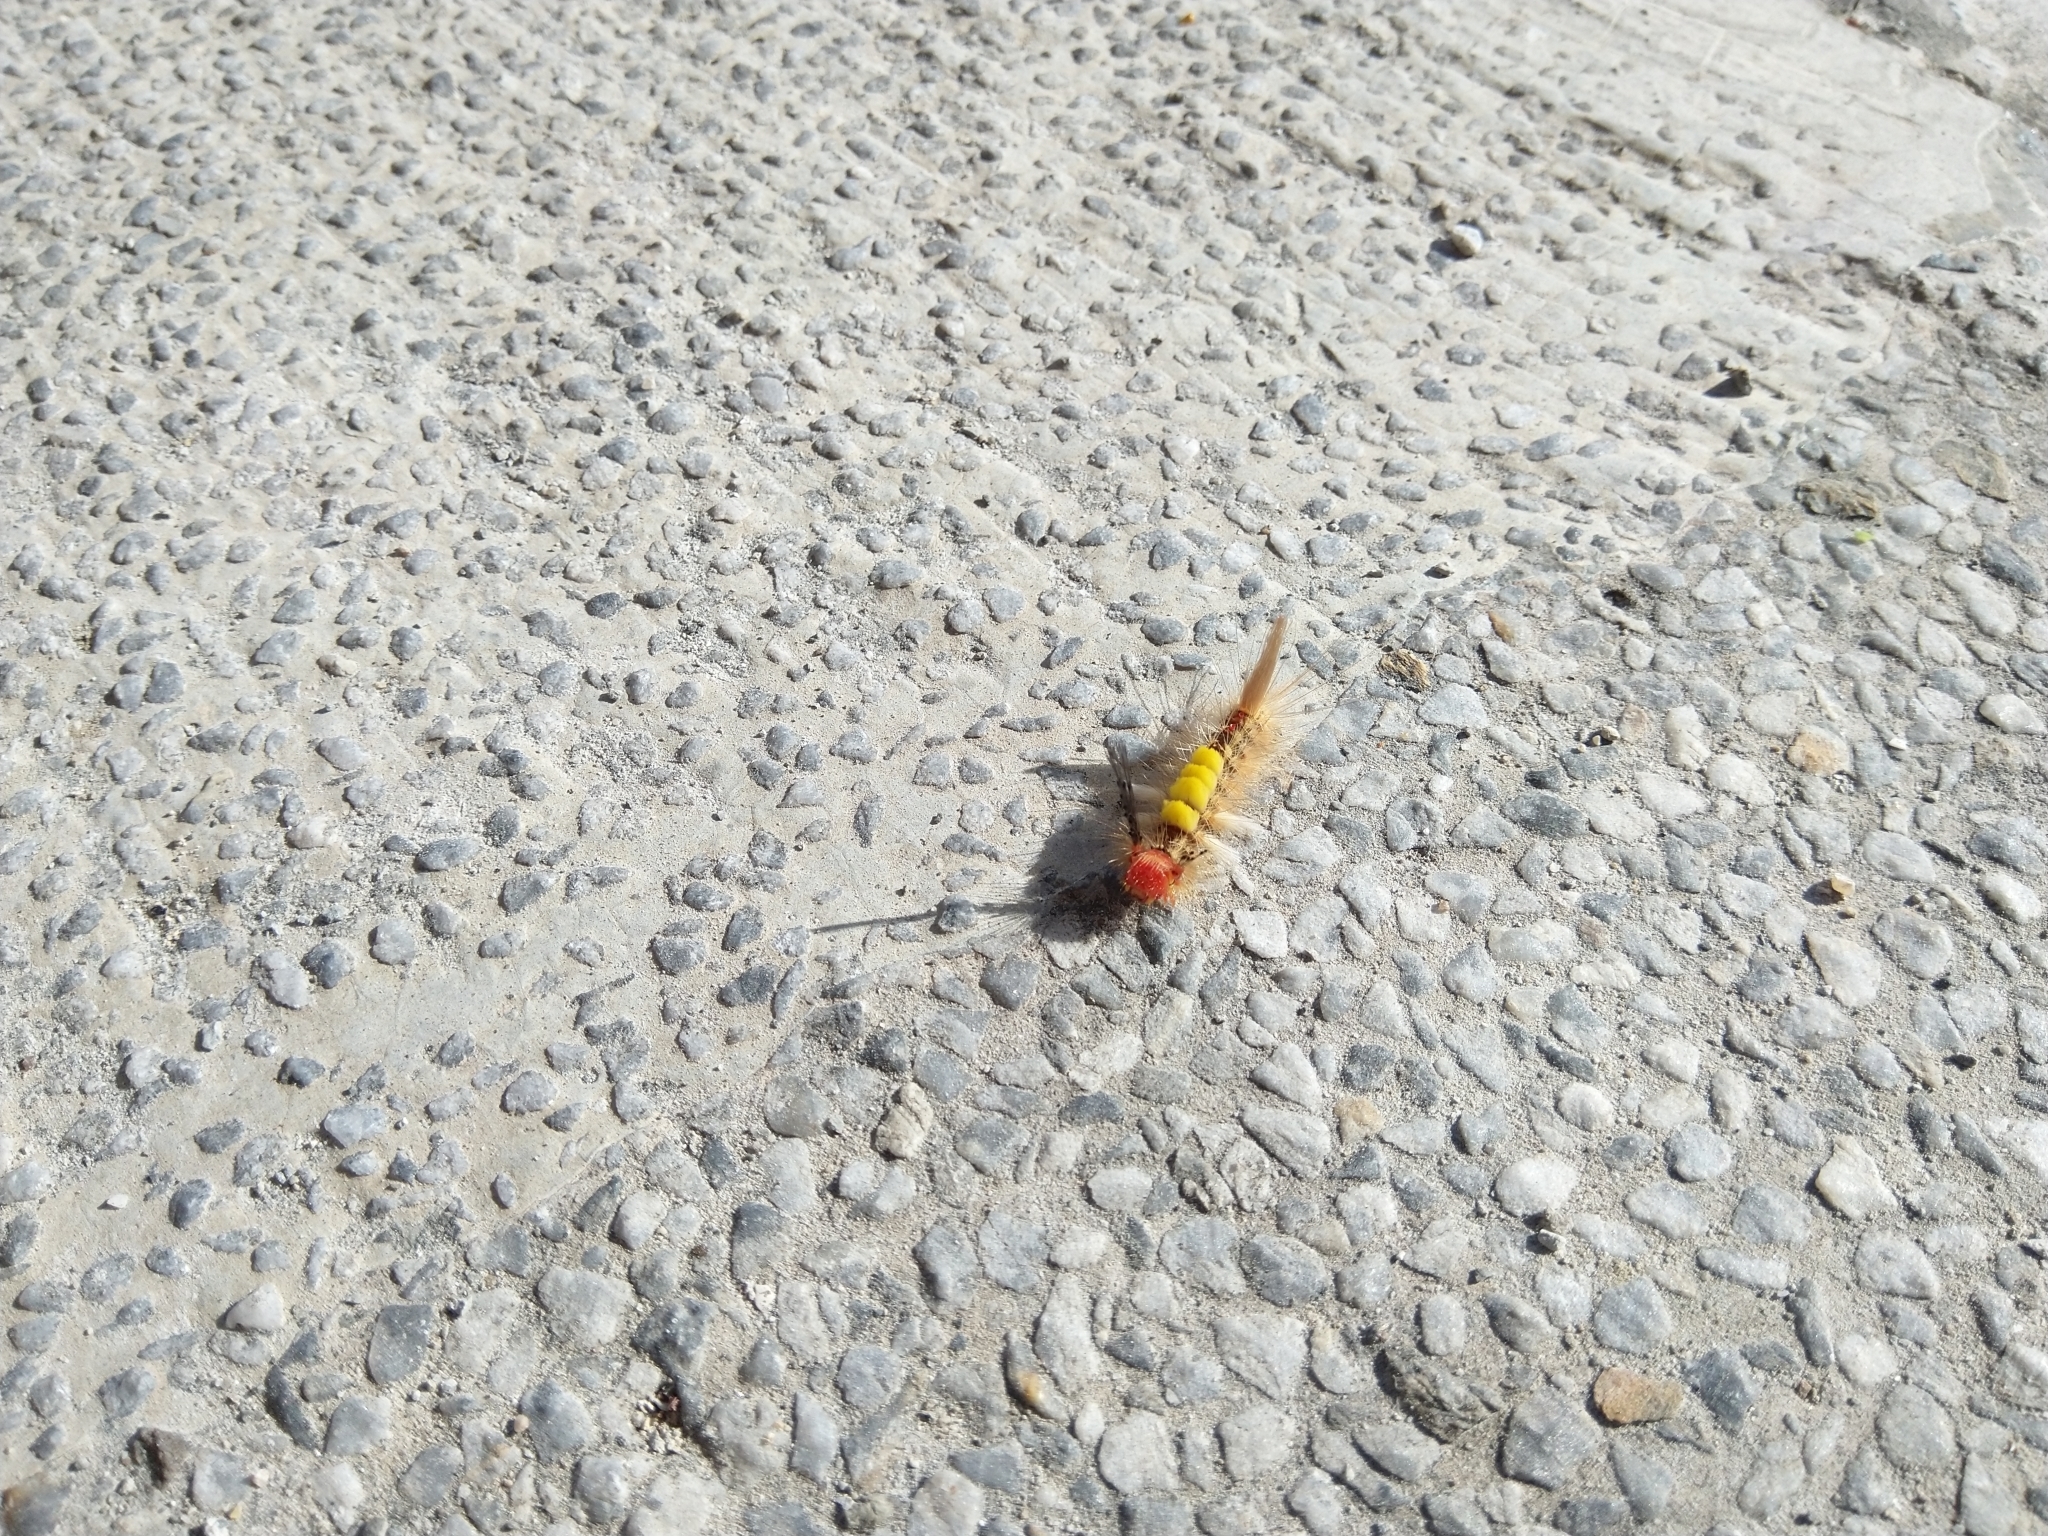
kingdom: Animalia
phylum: Arthropoda
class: Insecta
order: Lepidoptera
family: Erebidae
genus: Orgyia
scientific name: Orgyia postica
